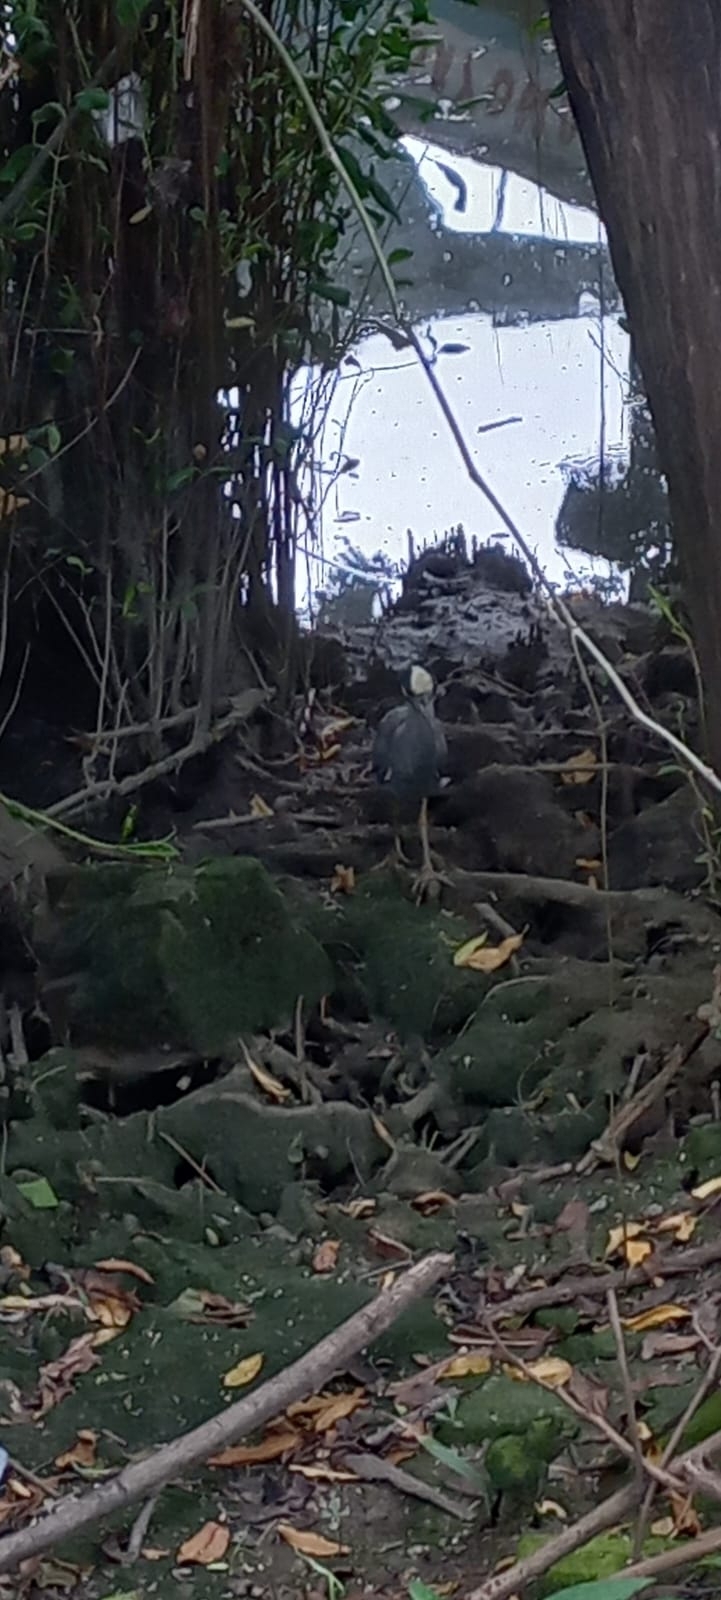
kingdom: Animalia
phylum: Chordata
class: Aves
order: Pelecaniformes
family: Ardeidae
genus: Nyctanassa
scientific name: Nyctanassa violacea
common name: Yellow-crowned night heron
